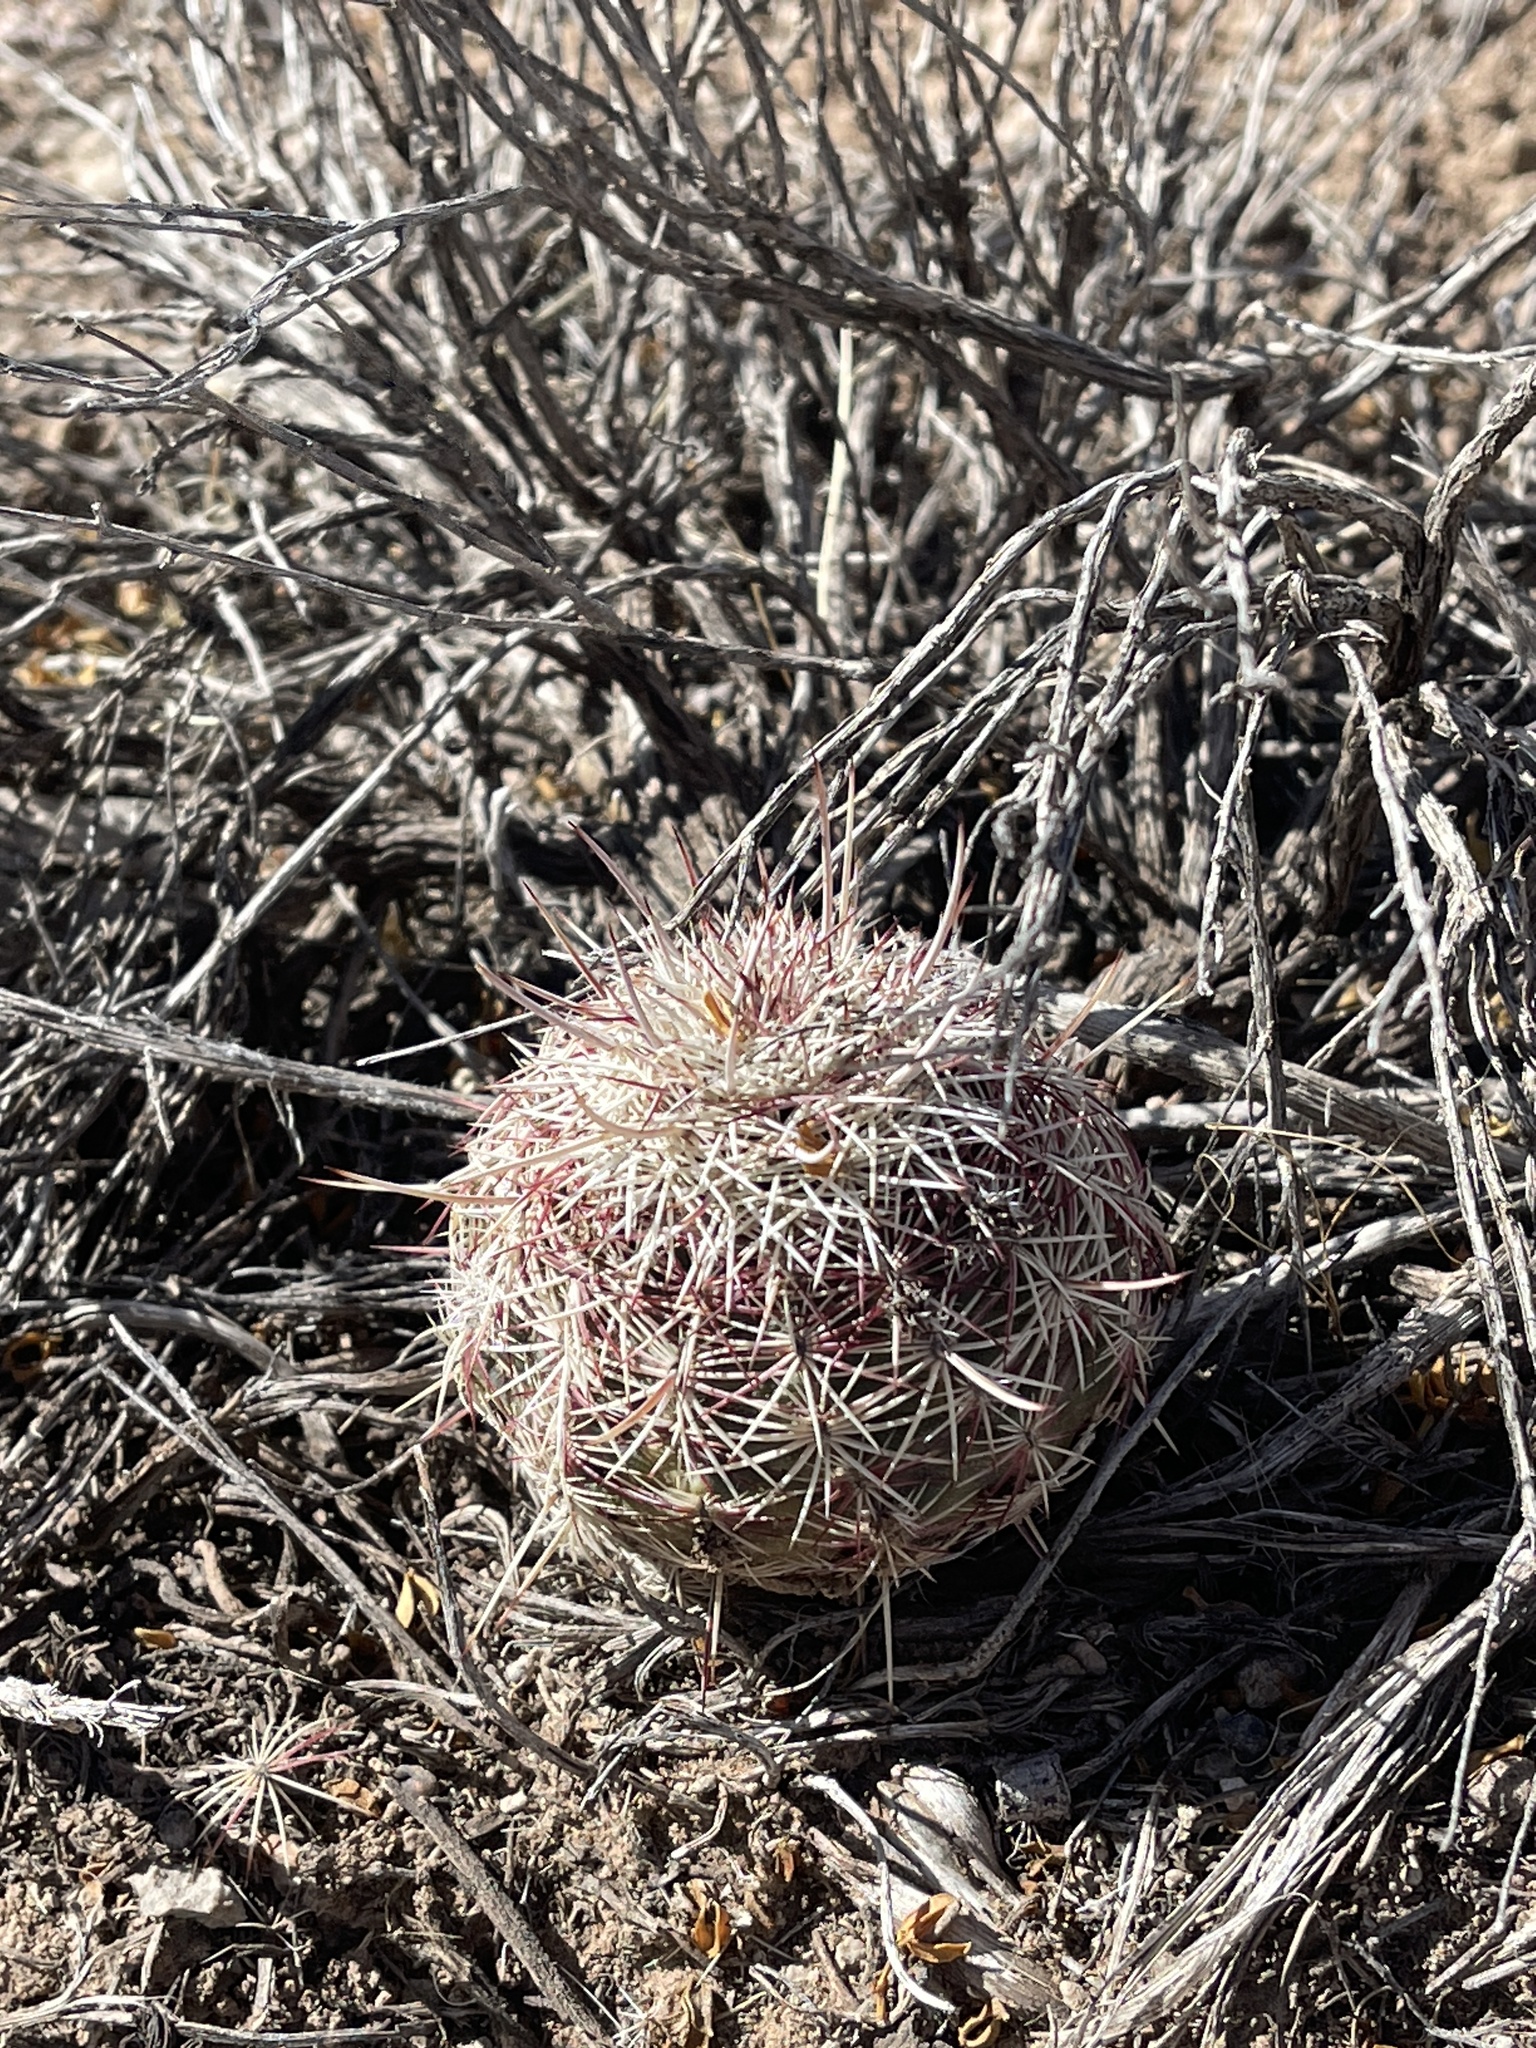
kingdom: Plantae
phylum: Tracheophyta
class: Magnoliopsida
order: Caryophyllales
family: Cactaceae
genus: Echinocereus
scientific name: Echinocereus viridiflorus
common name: Nylon hedgehog cactus
